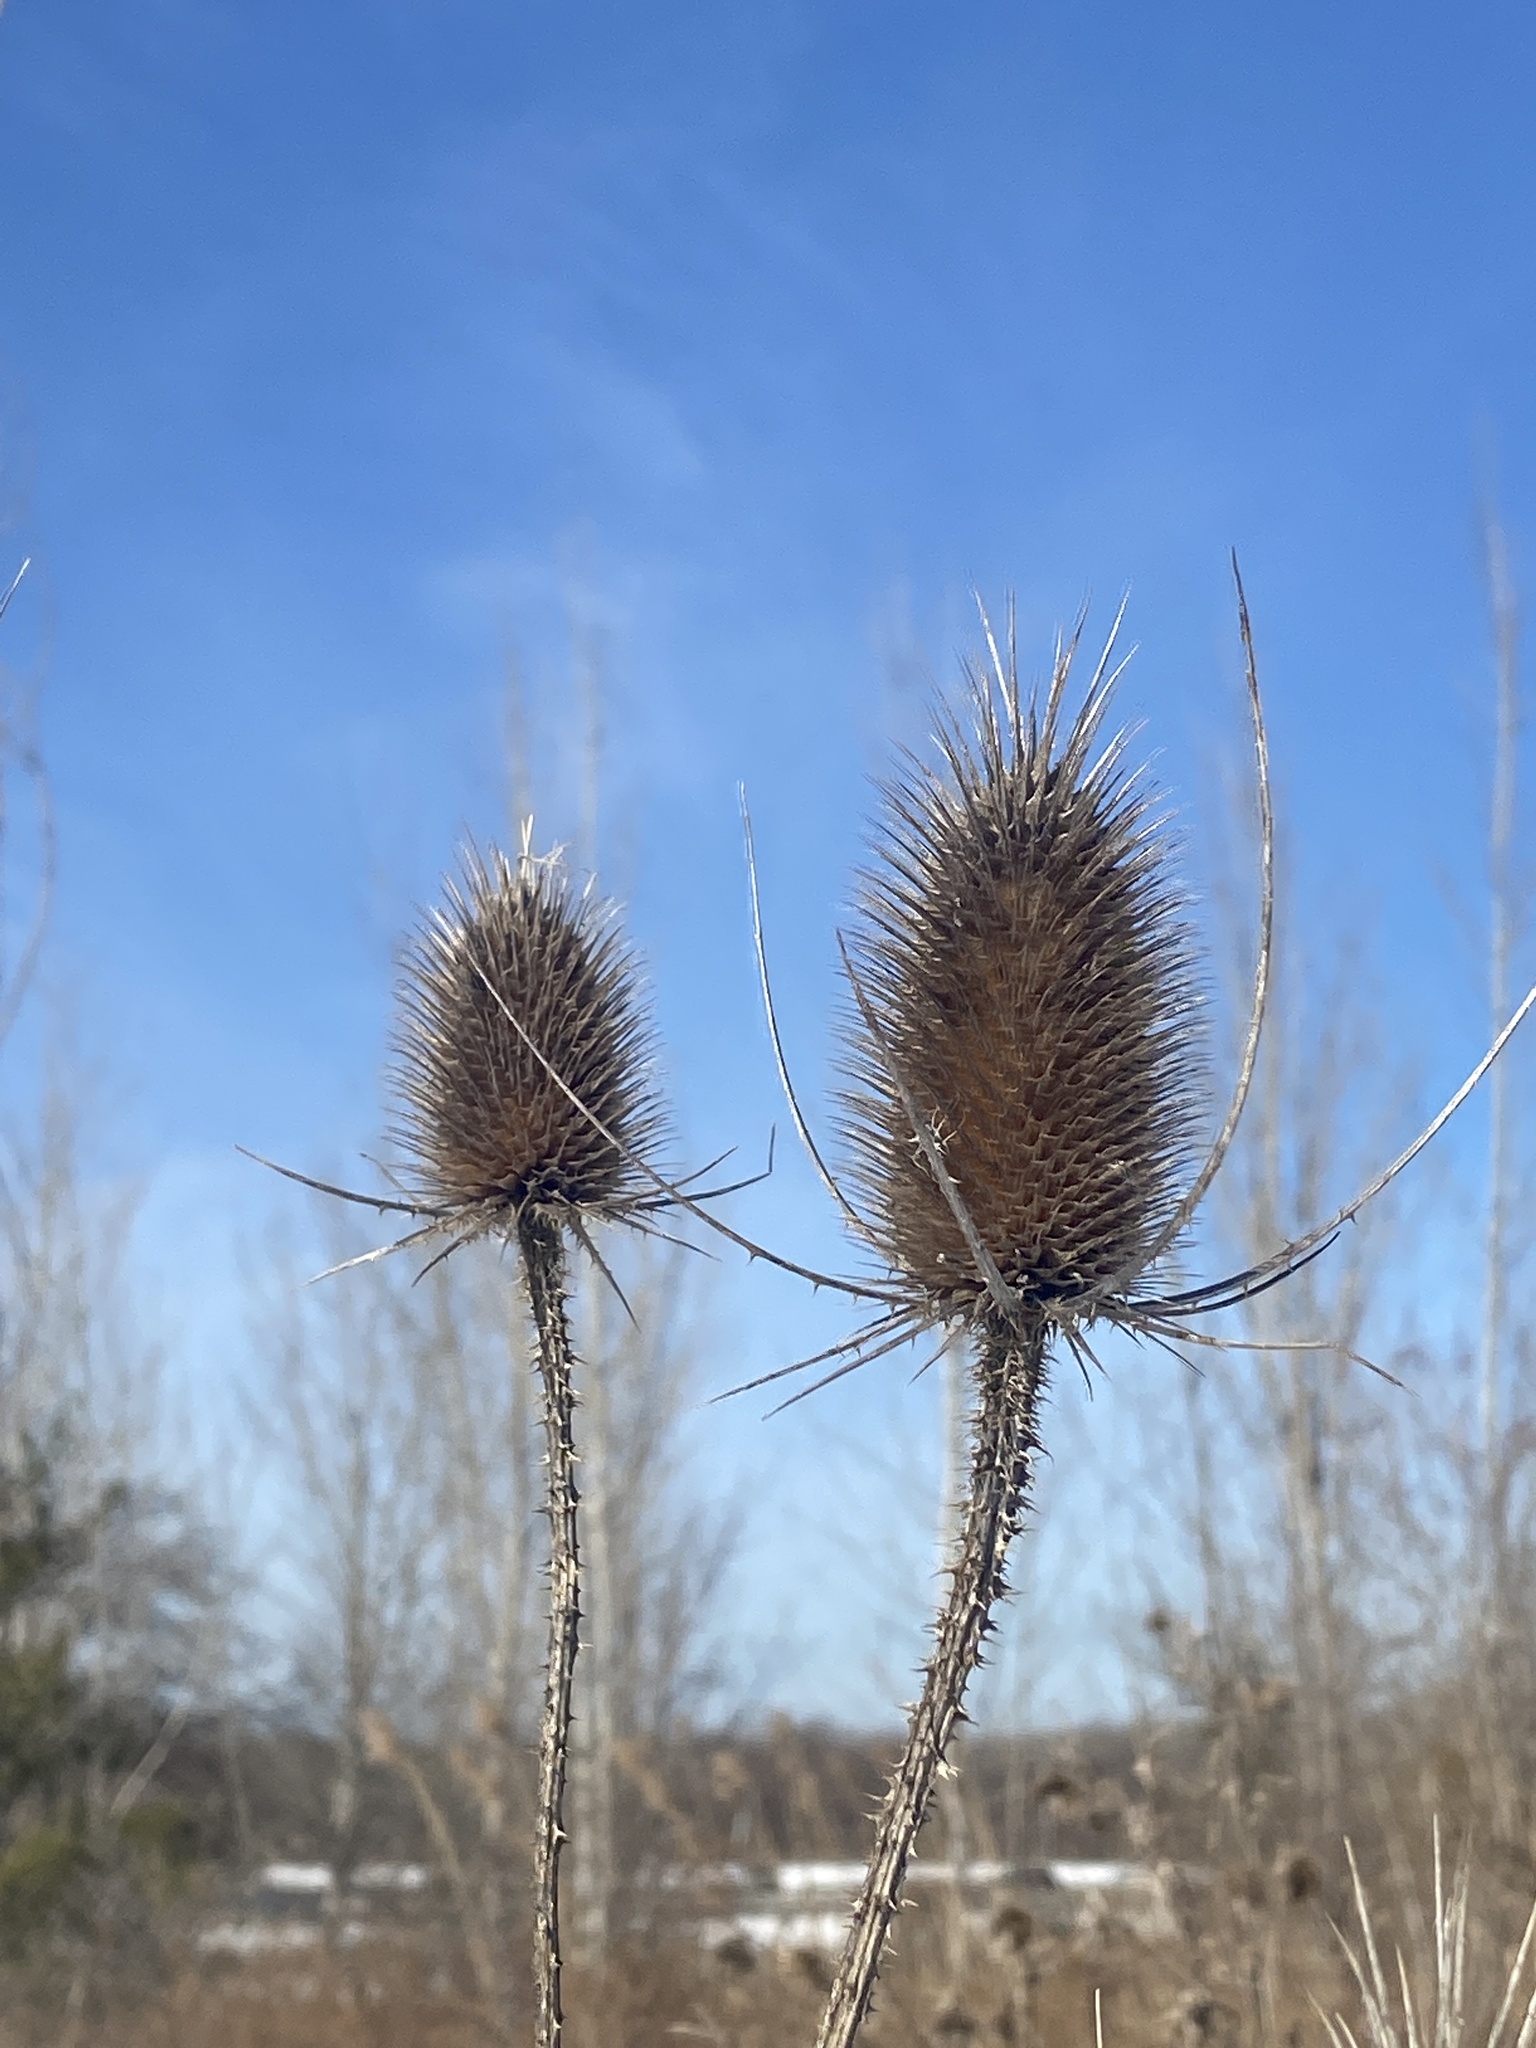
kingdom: Plantae
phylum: Tracheophyta
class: Magnoliopsida
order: Dipsacales
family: Caprifoliaceae
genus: Dipsacus
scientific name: Dipsacus fullonum
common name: Teasel
